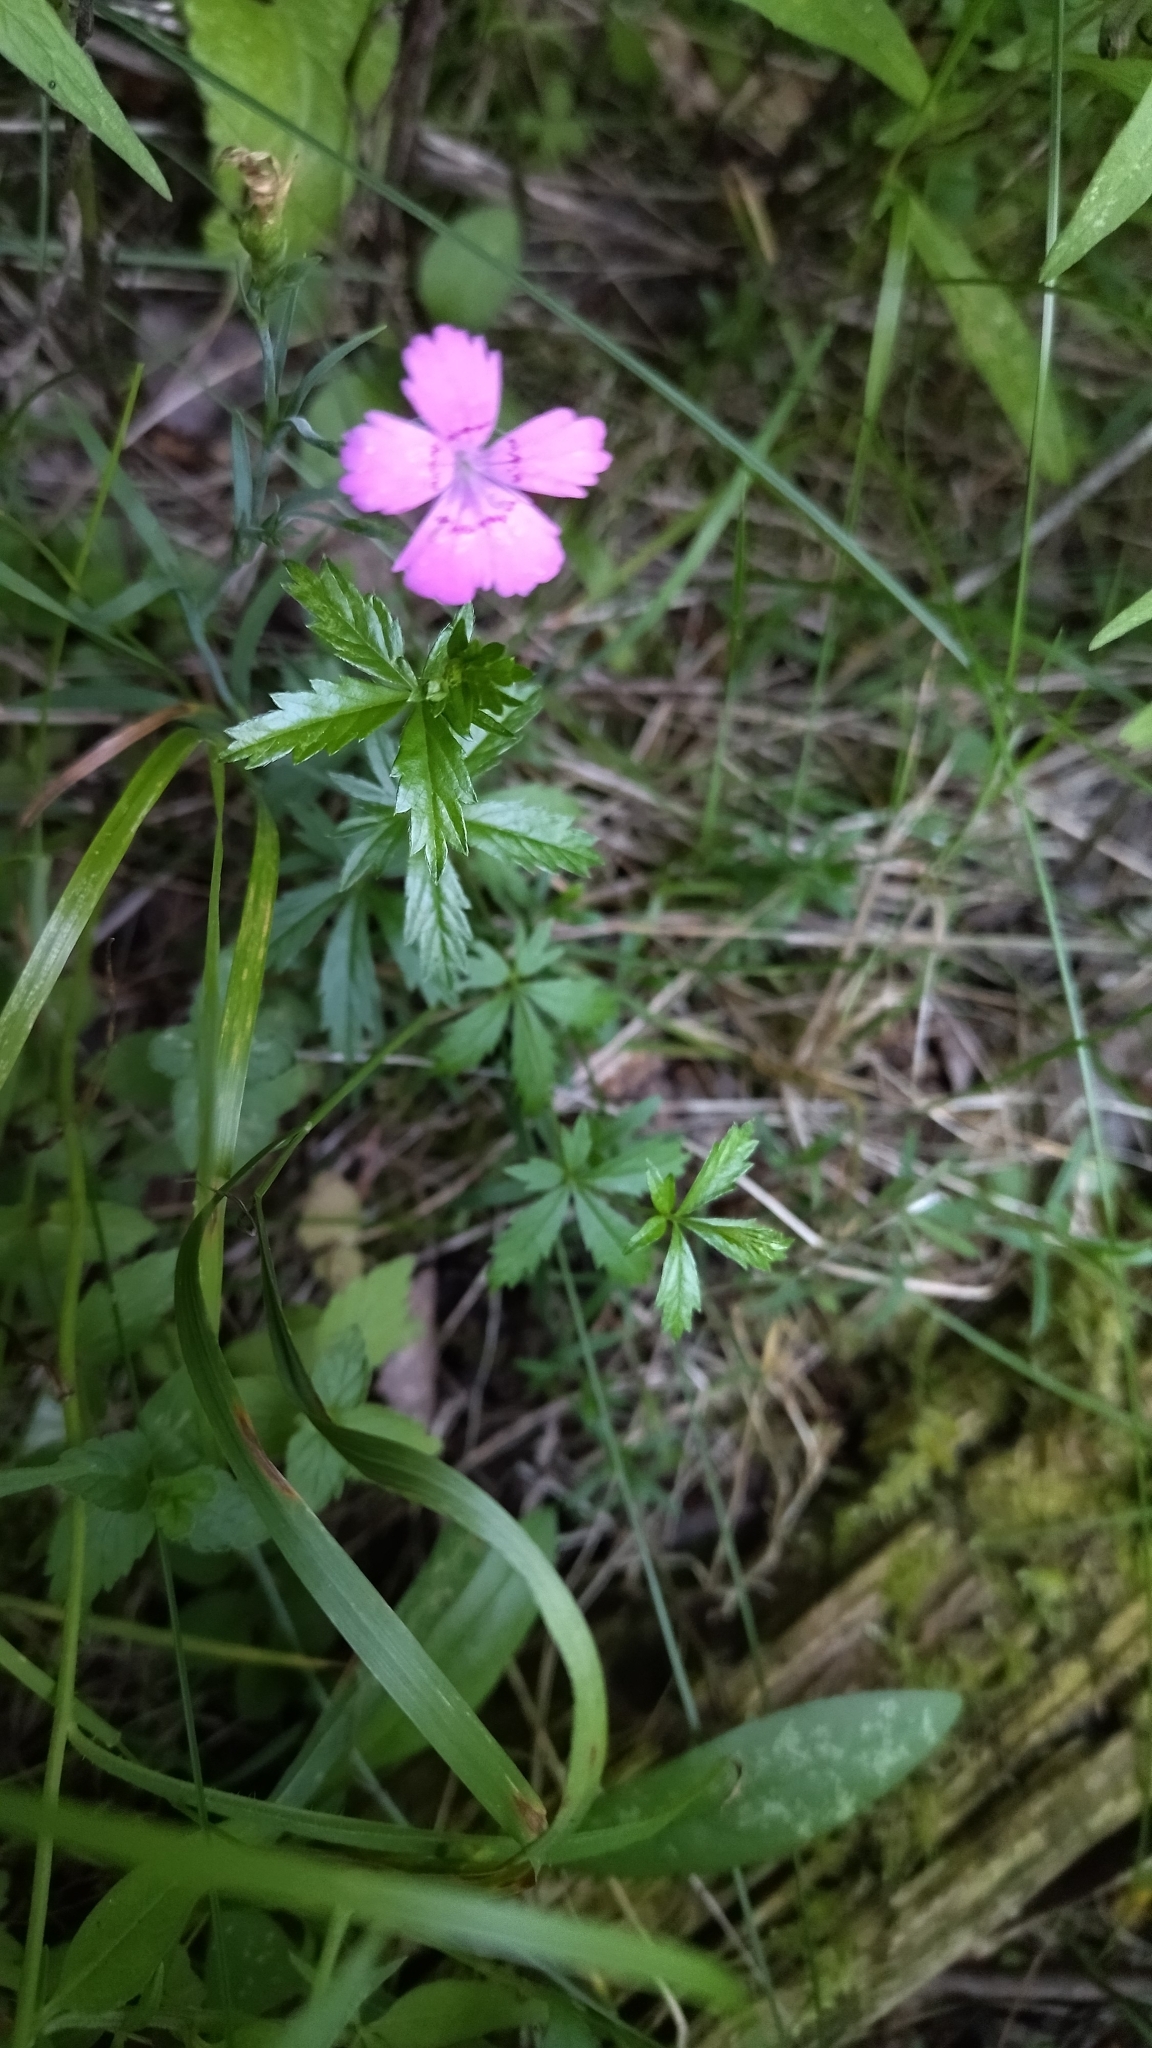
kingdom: Plantae
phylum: Tracheophyta
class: Magnoliopsida
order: Caryophyllales
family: Caryophyllaceae
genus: Dianthus
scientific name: Dianthus deltoides
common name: Maiden pink
